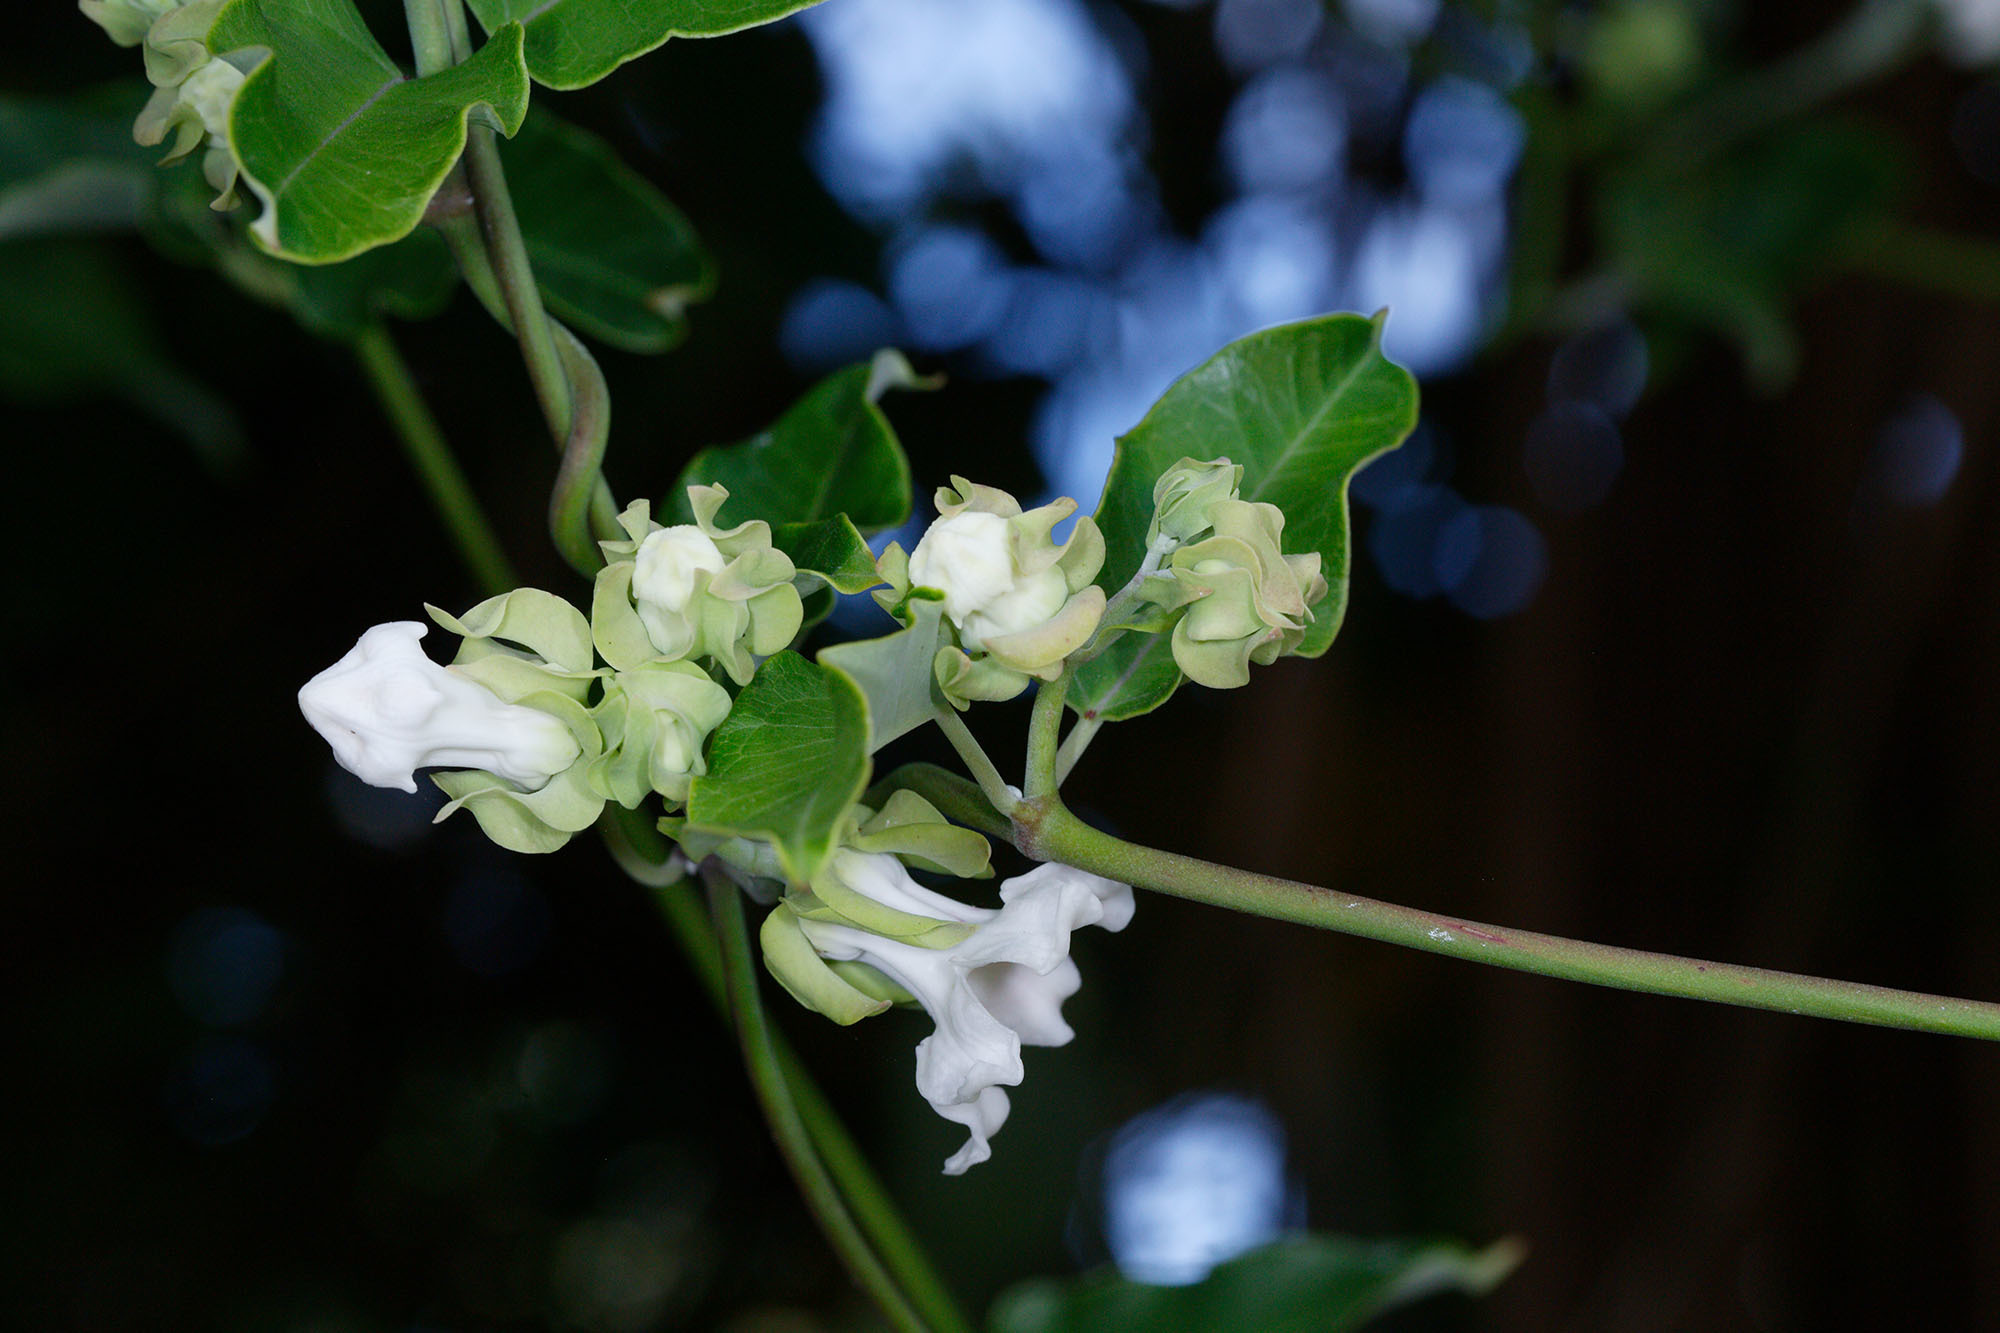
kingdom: Plantae
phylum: Tracheophyta
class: Magnoliopsida
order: Gentianales
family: Apocynaceae
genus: Araujia
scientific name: Araujia sericifera
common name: White bladderflower
